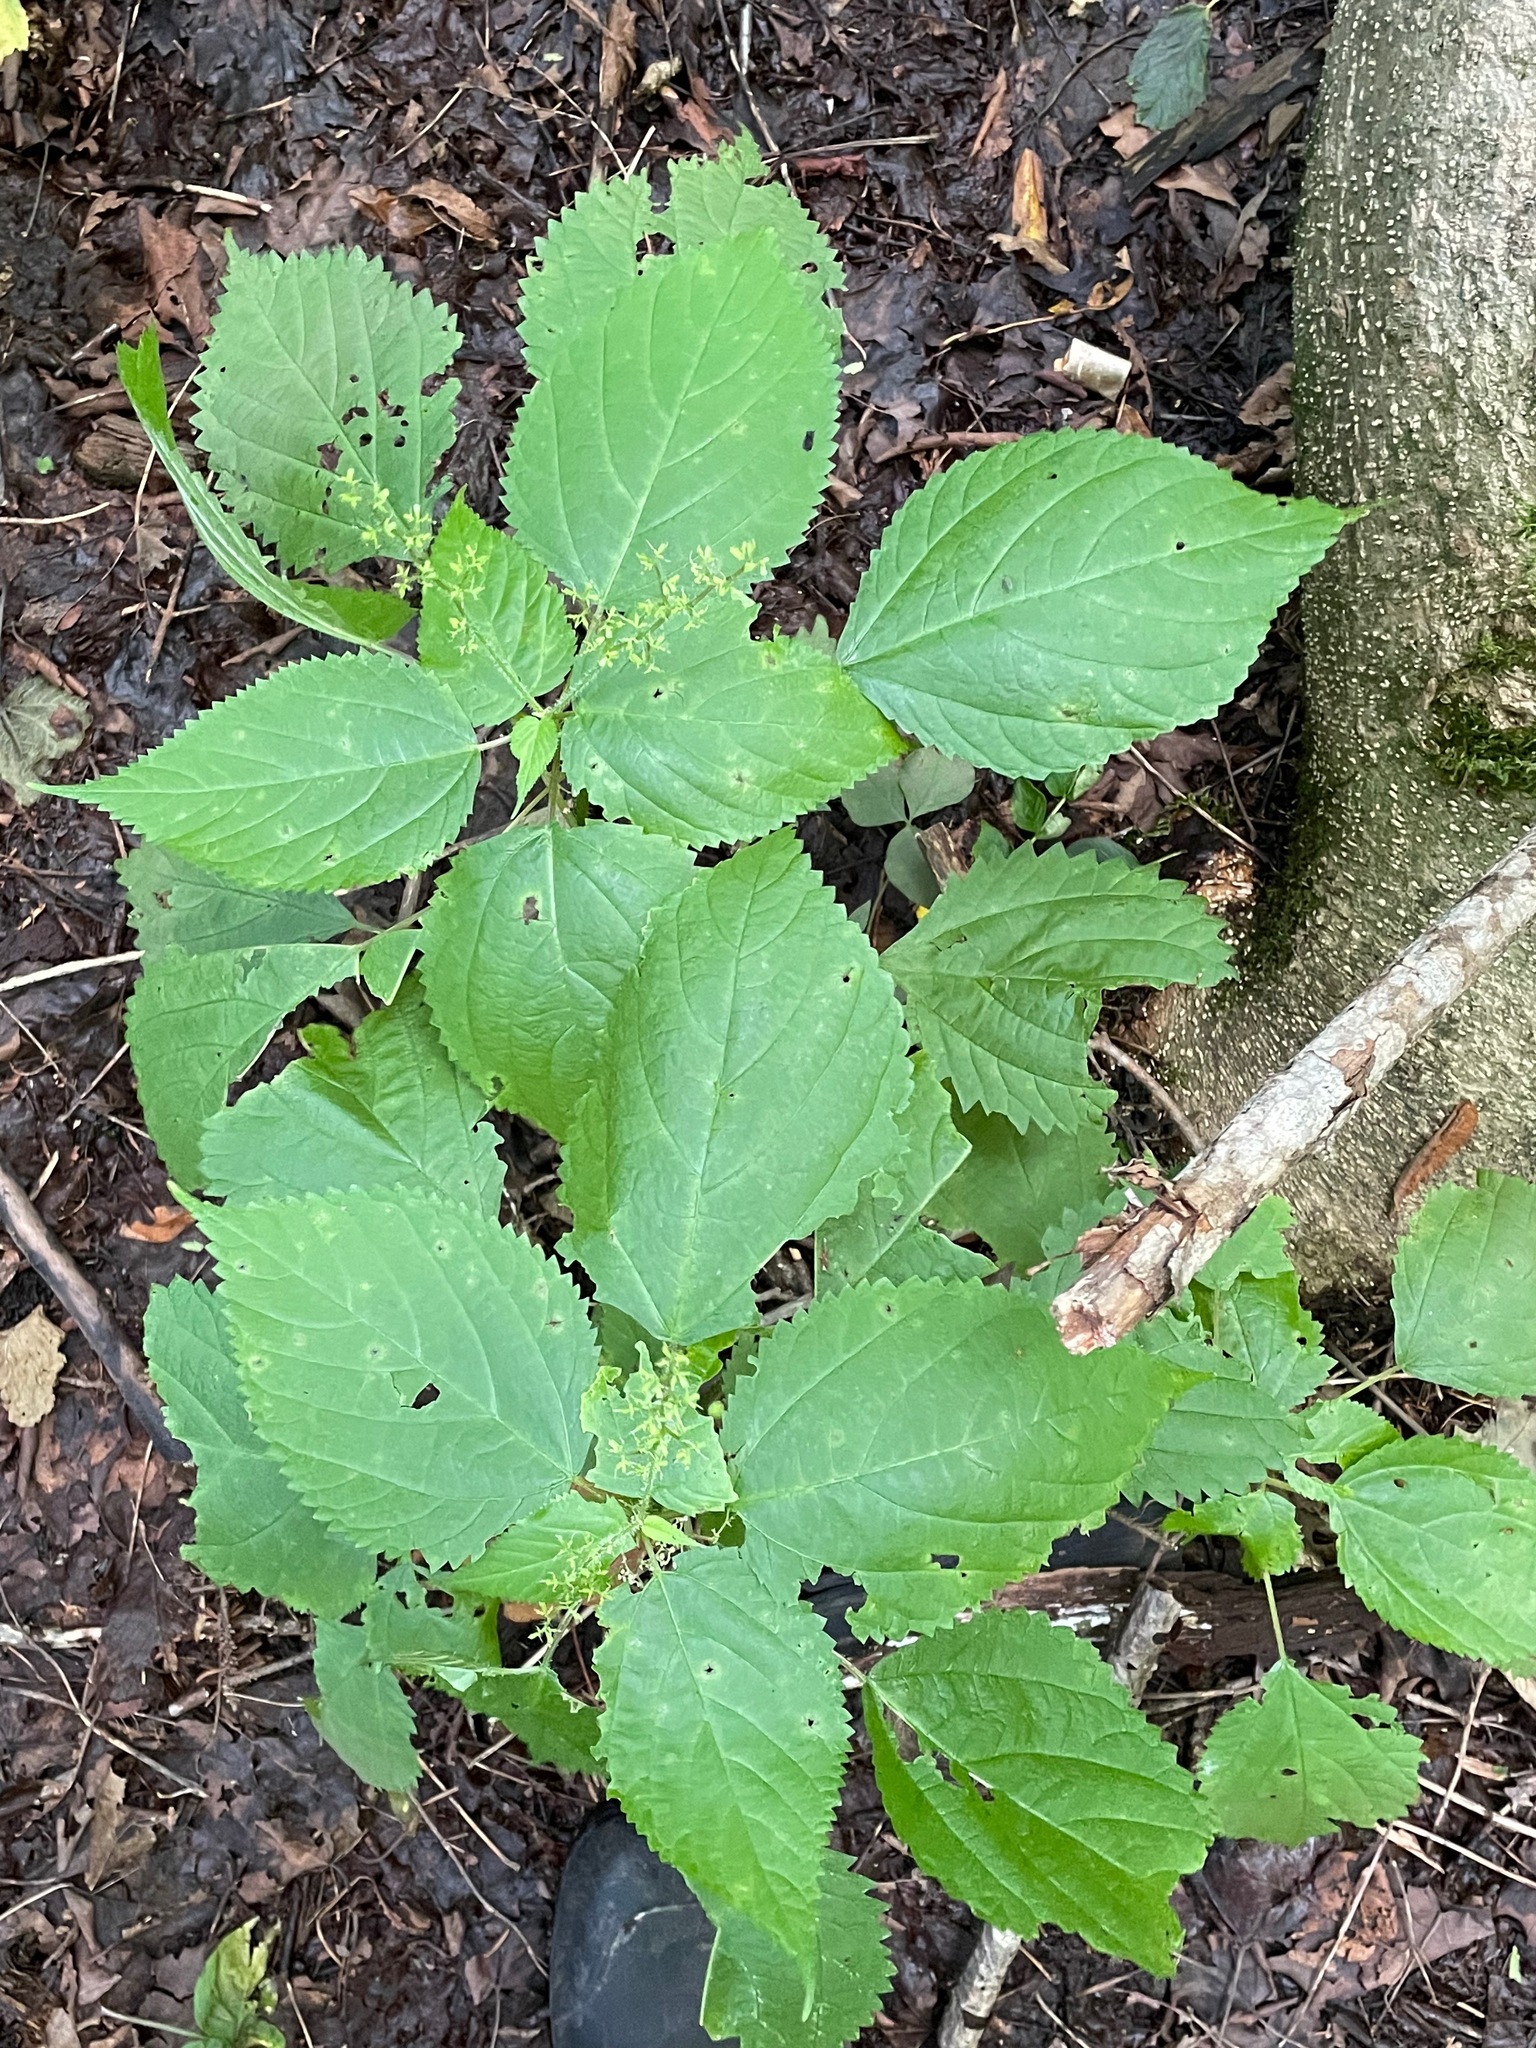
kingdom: Plantae
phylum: Tracheophyta
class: Magnoliopsida
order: Rosales
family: Urticaceae
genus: Laportea
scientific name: Laportea canadensis
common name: Canada nettle
